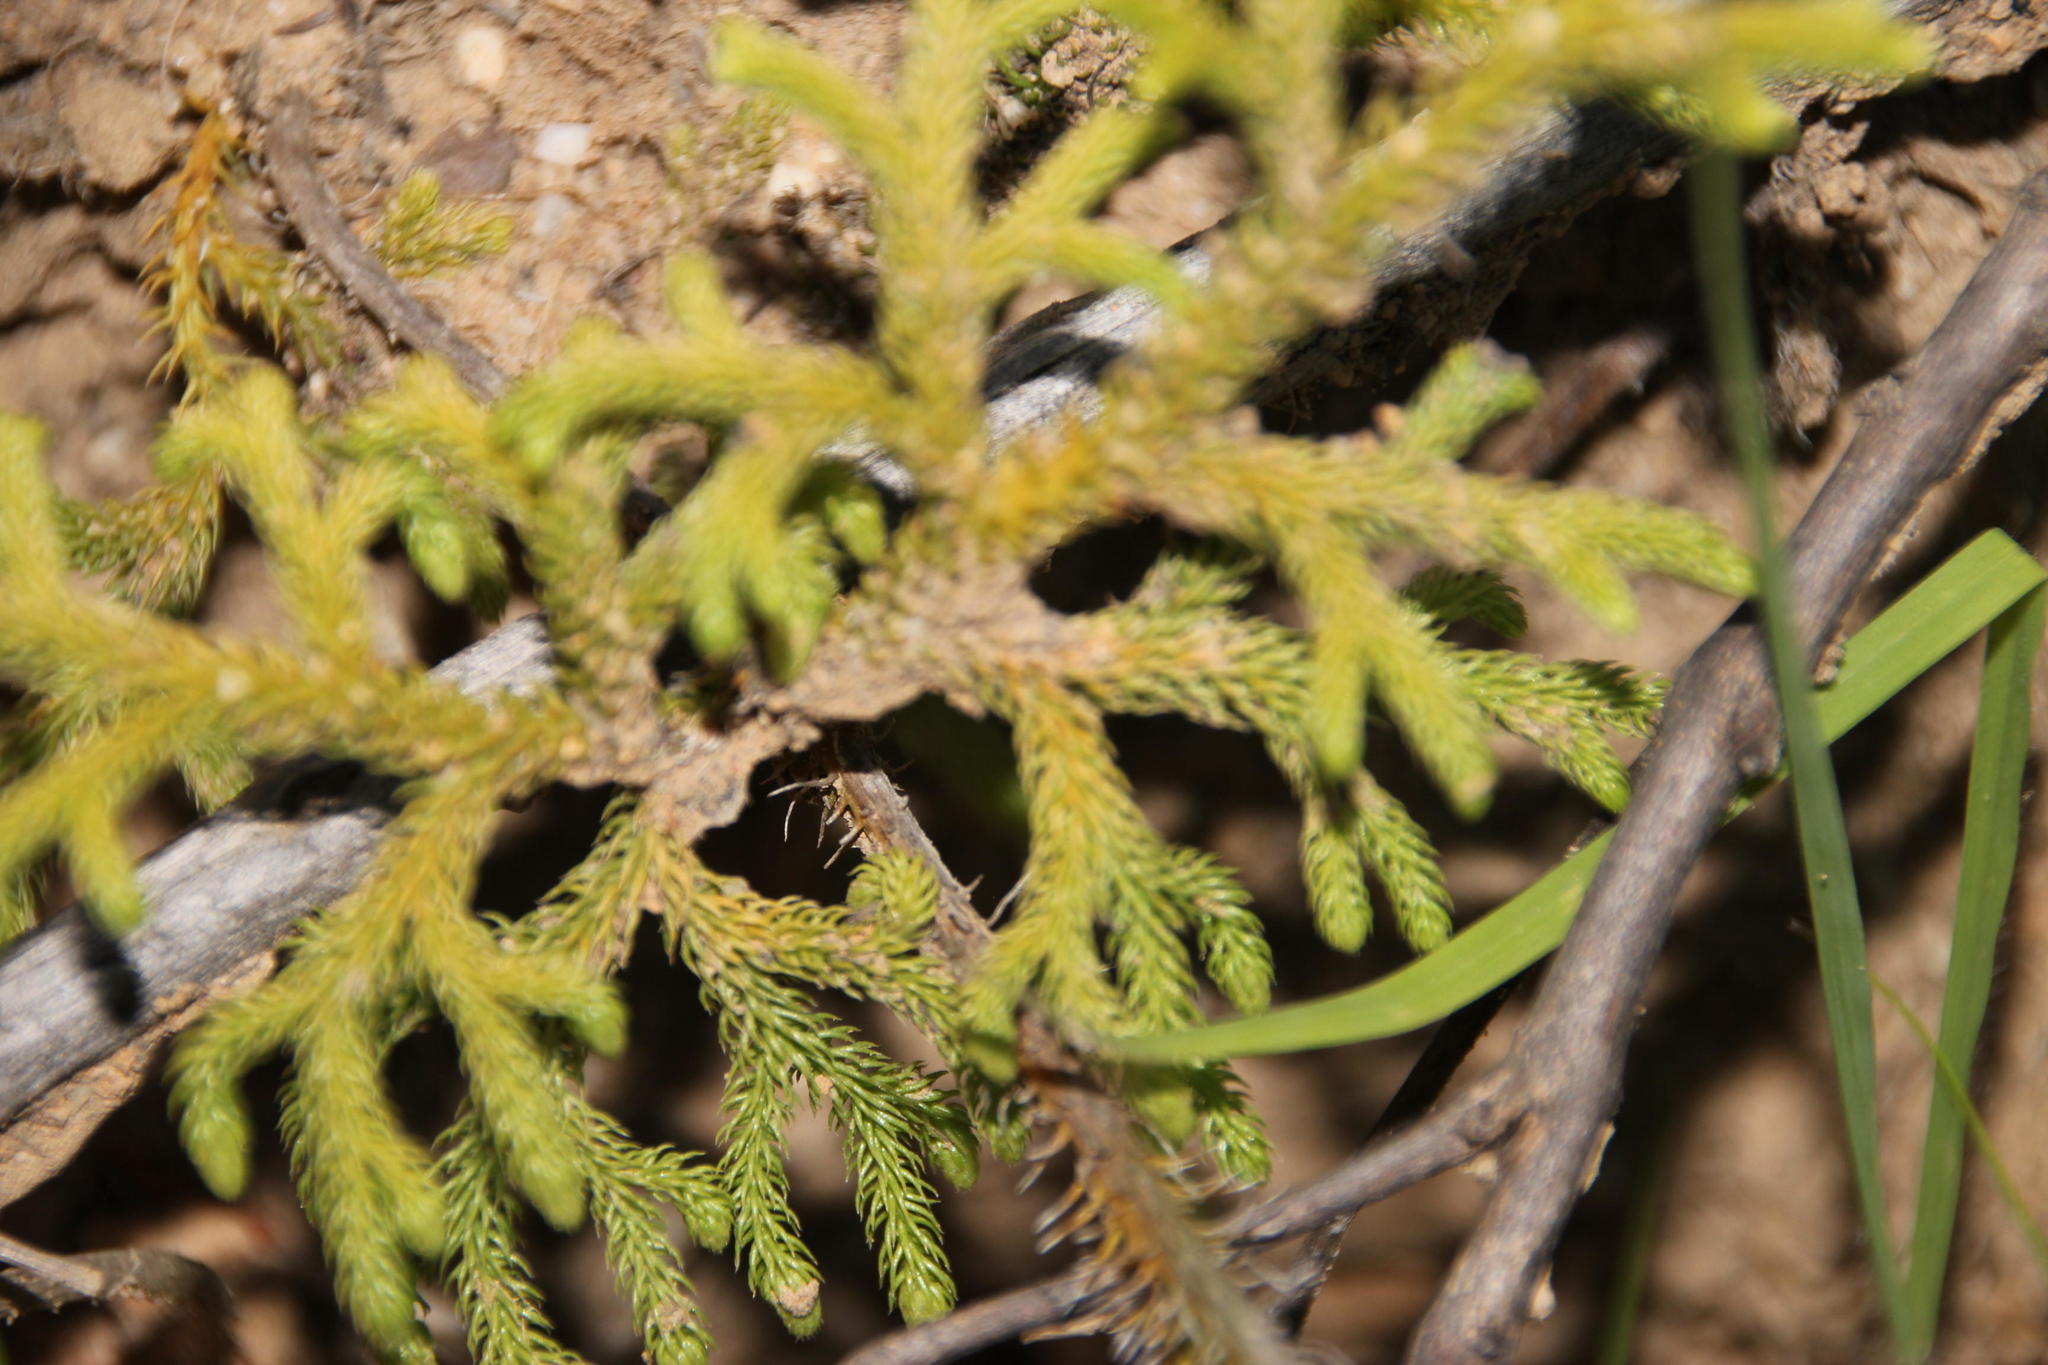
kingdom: Plantae
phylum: Tracheophyta
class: Lycopodiopsida
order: Lycopodiales
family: Lycopodiaceae
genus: Palhinhaea
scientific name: Palhinhaea cernua
